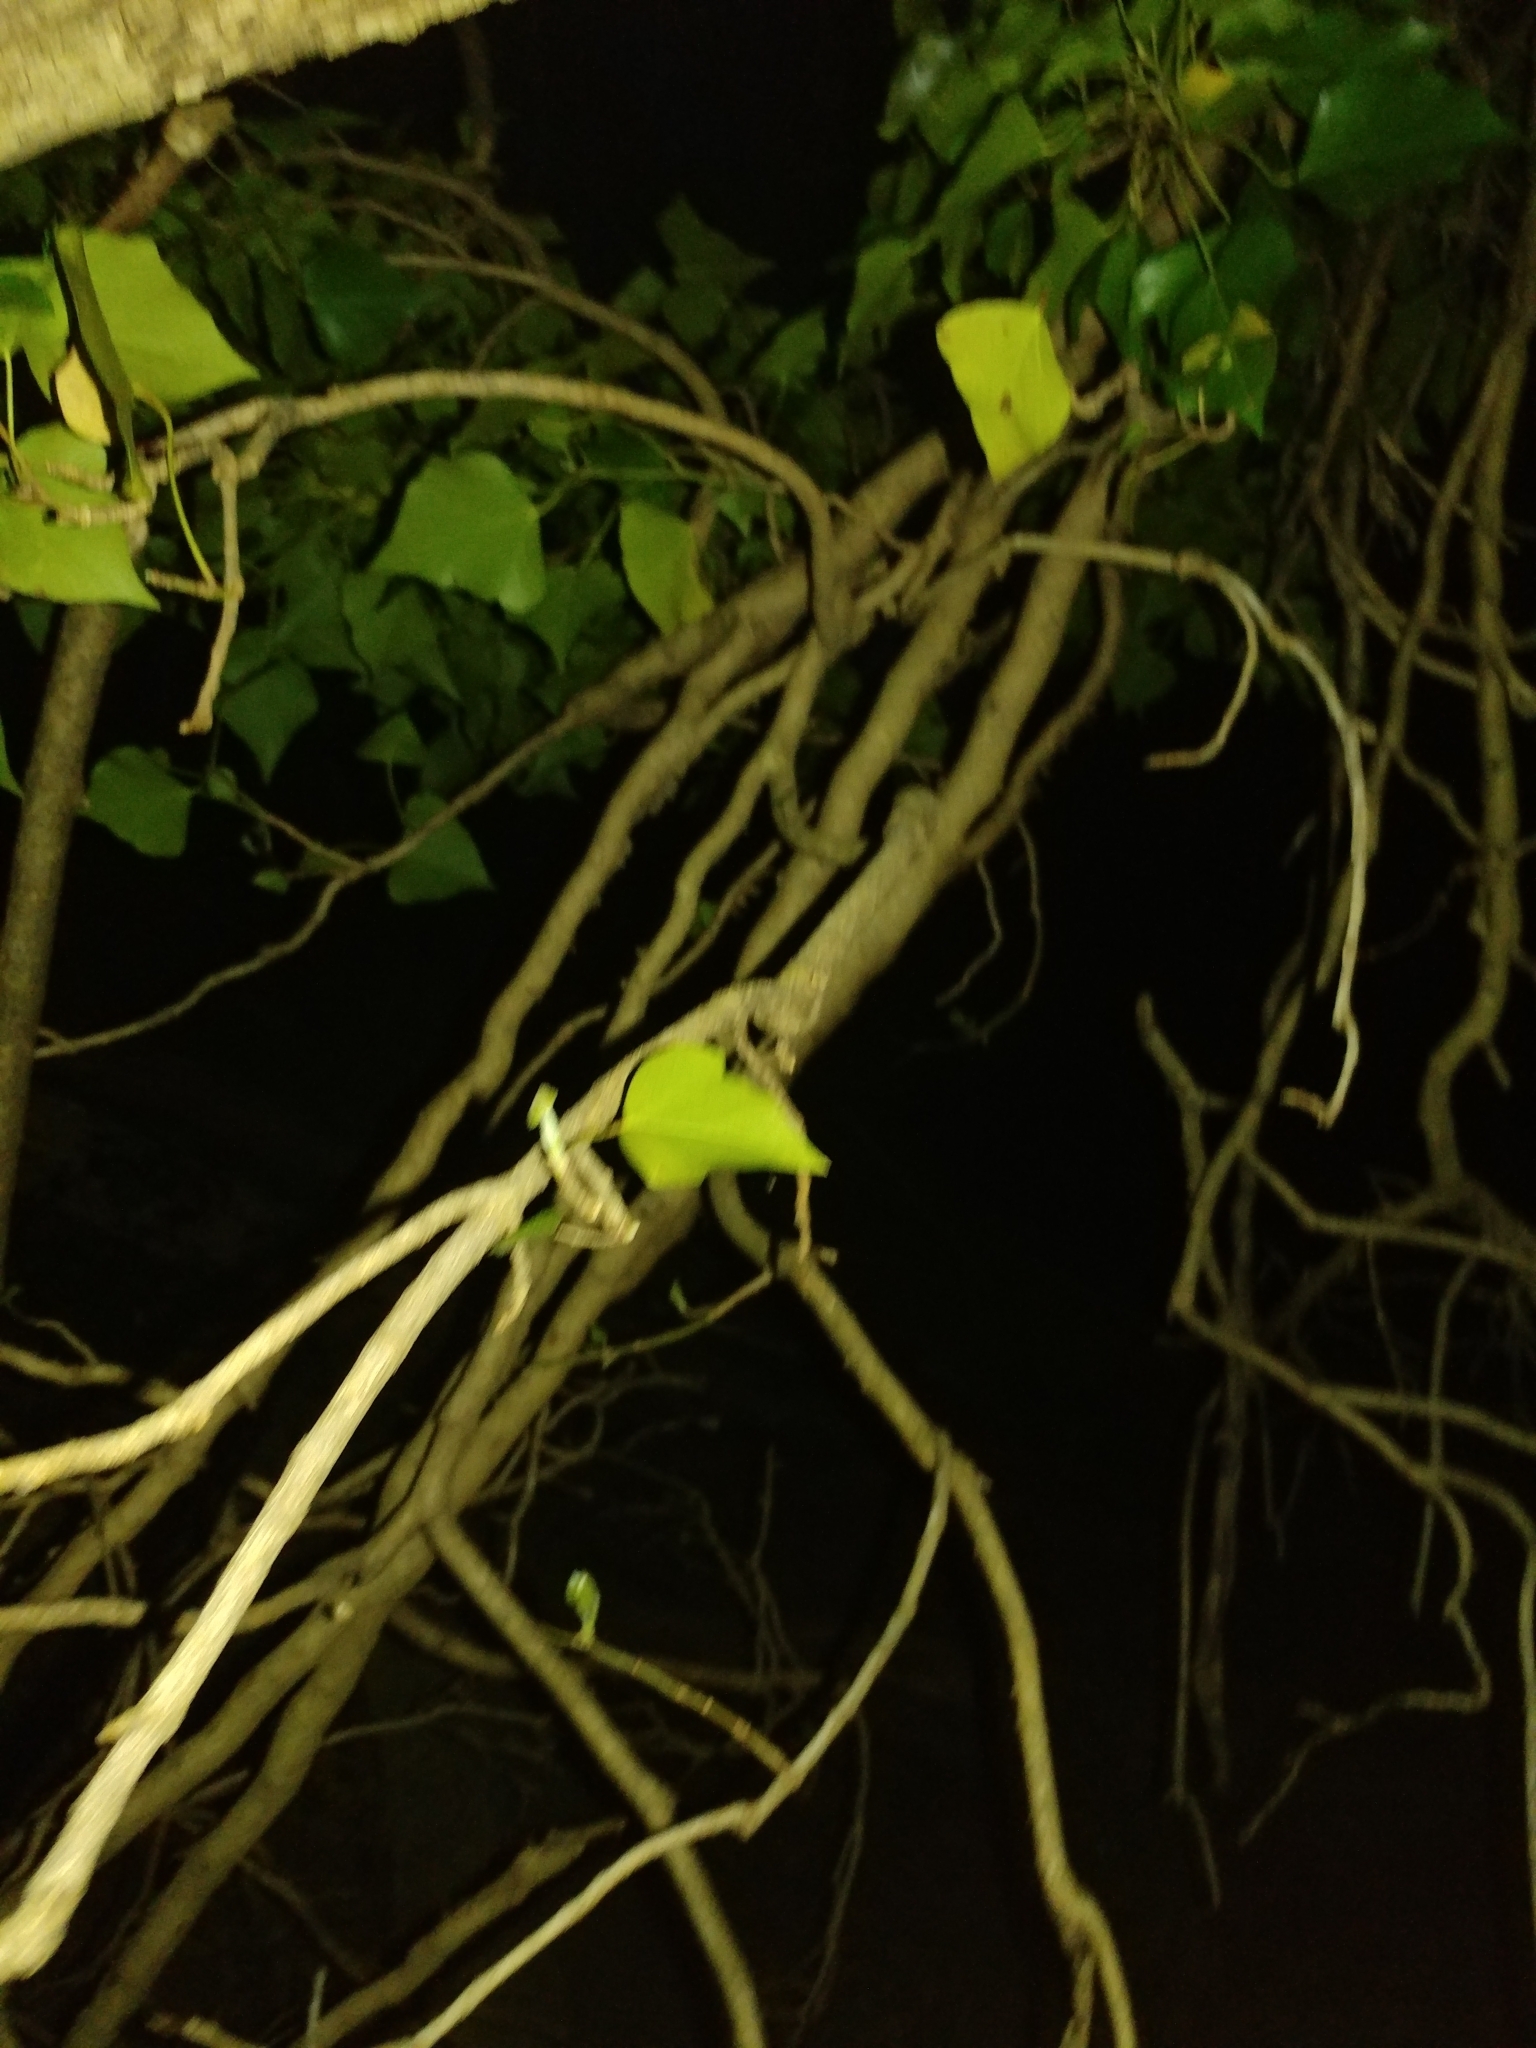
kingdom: Plantae
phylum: Tracheophyta
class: Magnoliopsida
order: Apiales
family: Araliaceae
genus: Hedera
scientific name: Hedera helix
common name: Ivy
